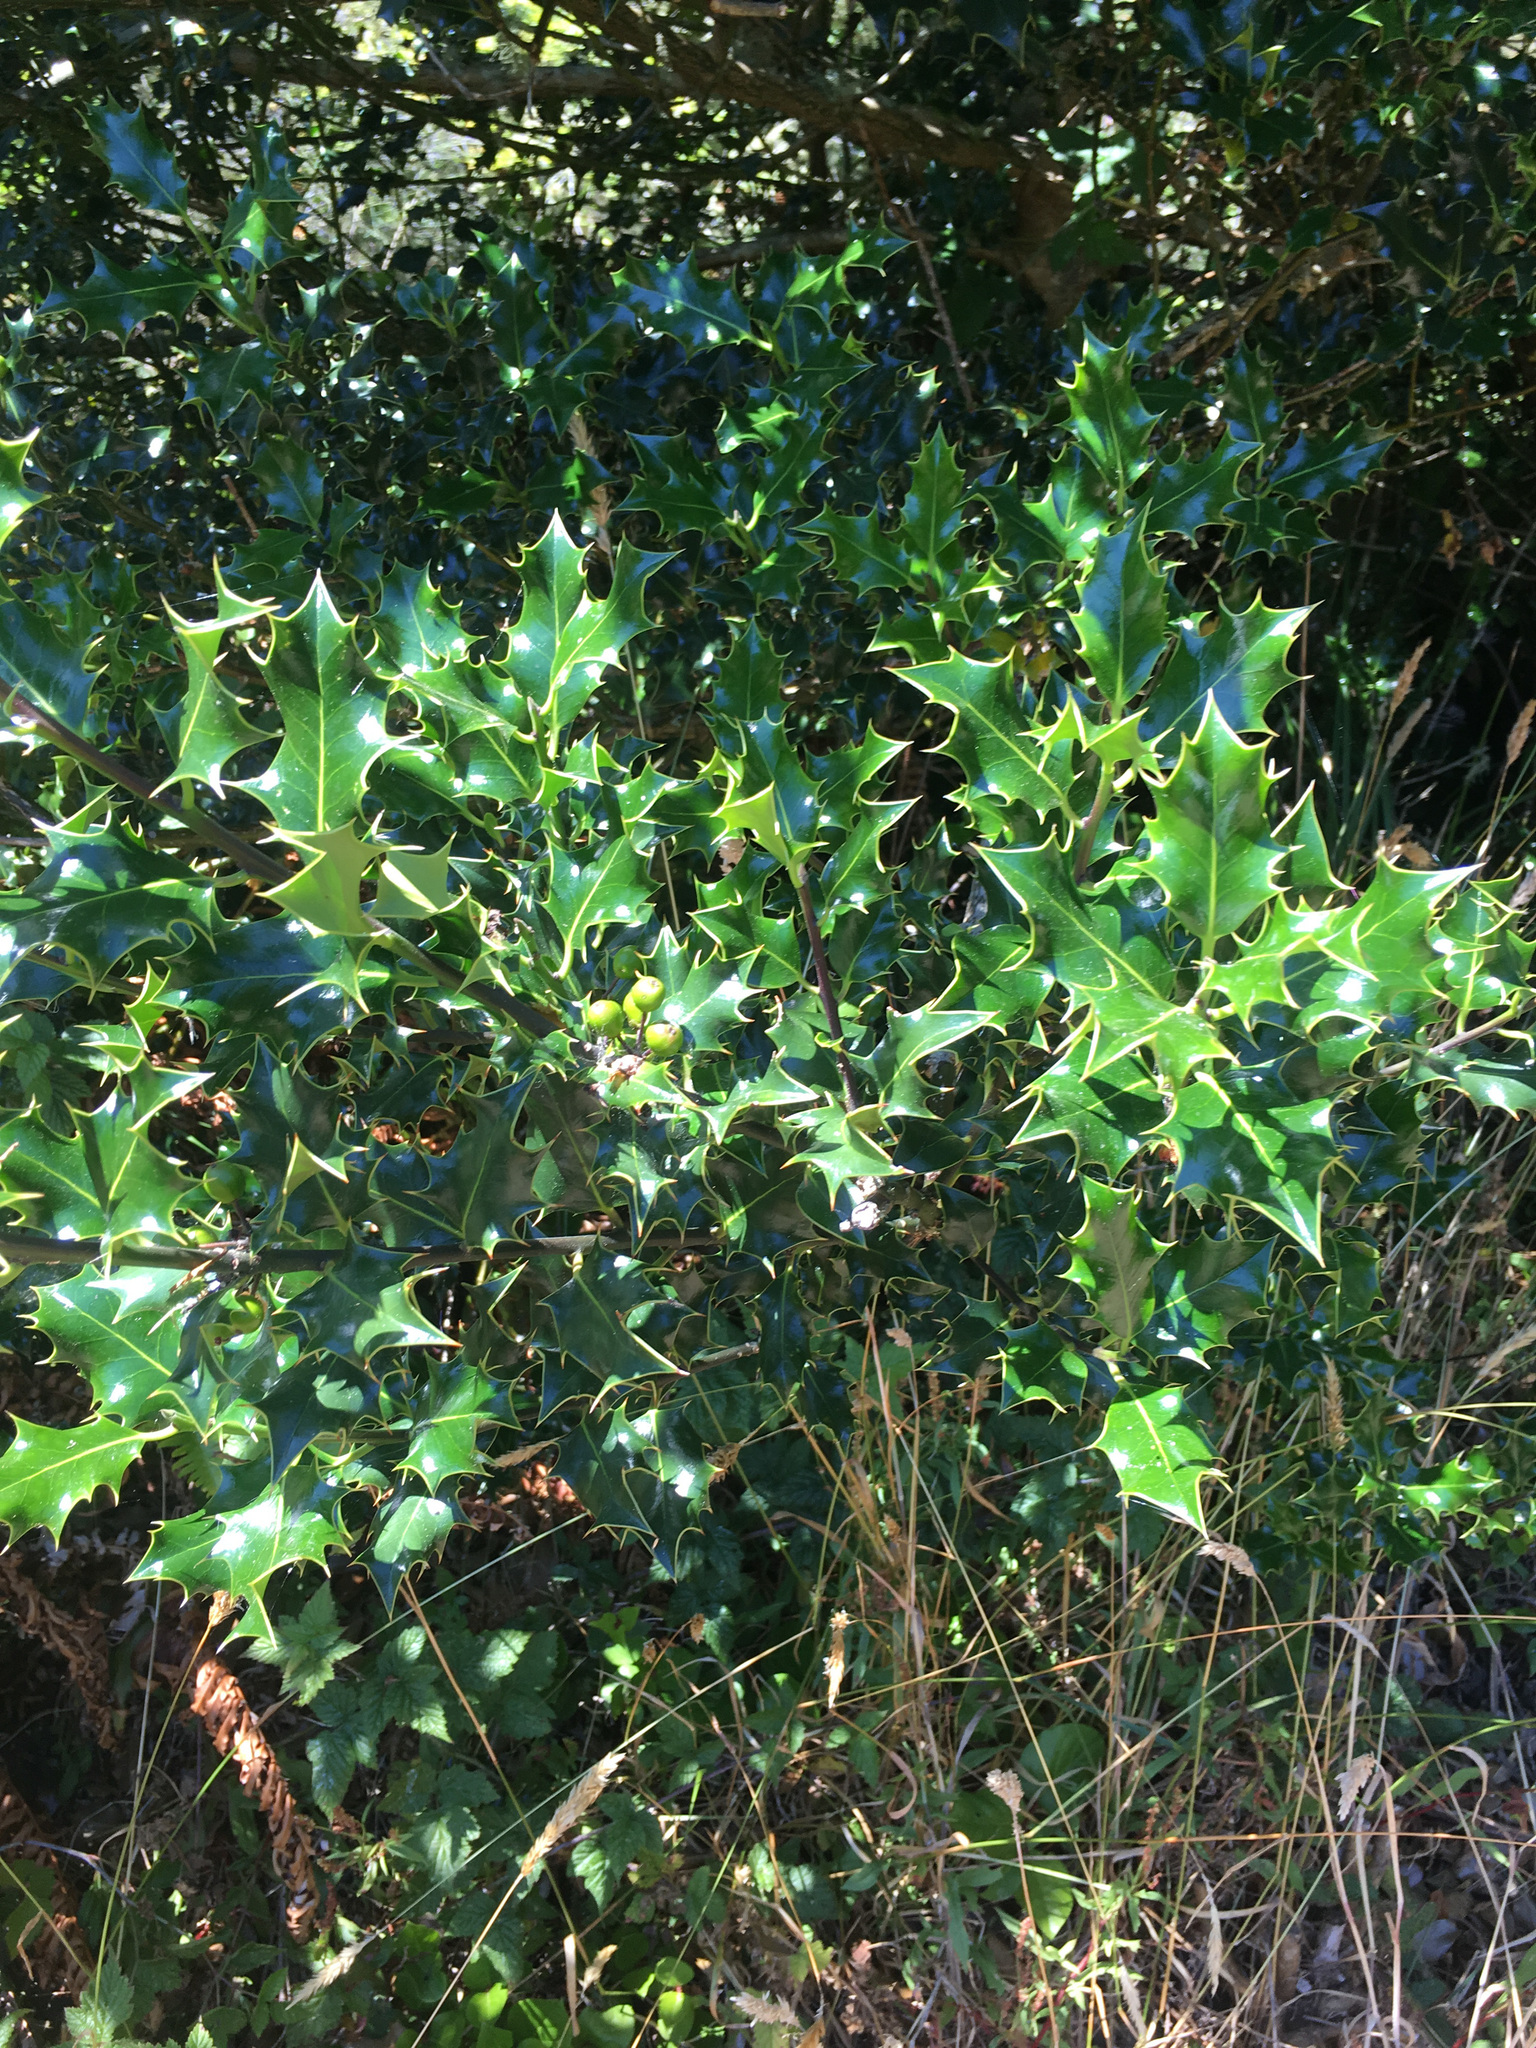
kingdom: Plantae
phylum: Tracheophyta
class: Magnoliopsida
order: Aquifoliales
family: Aquifoliaceae
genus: Ilex
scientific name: Ilex aquifolium
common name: English holly
